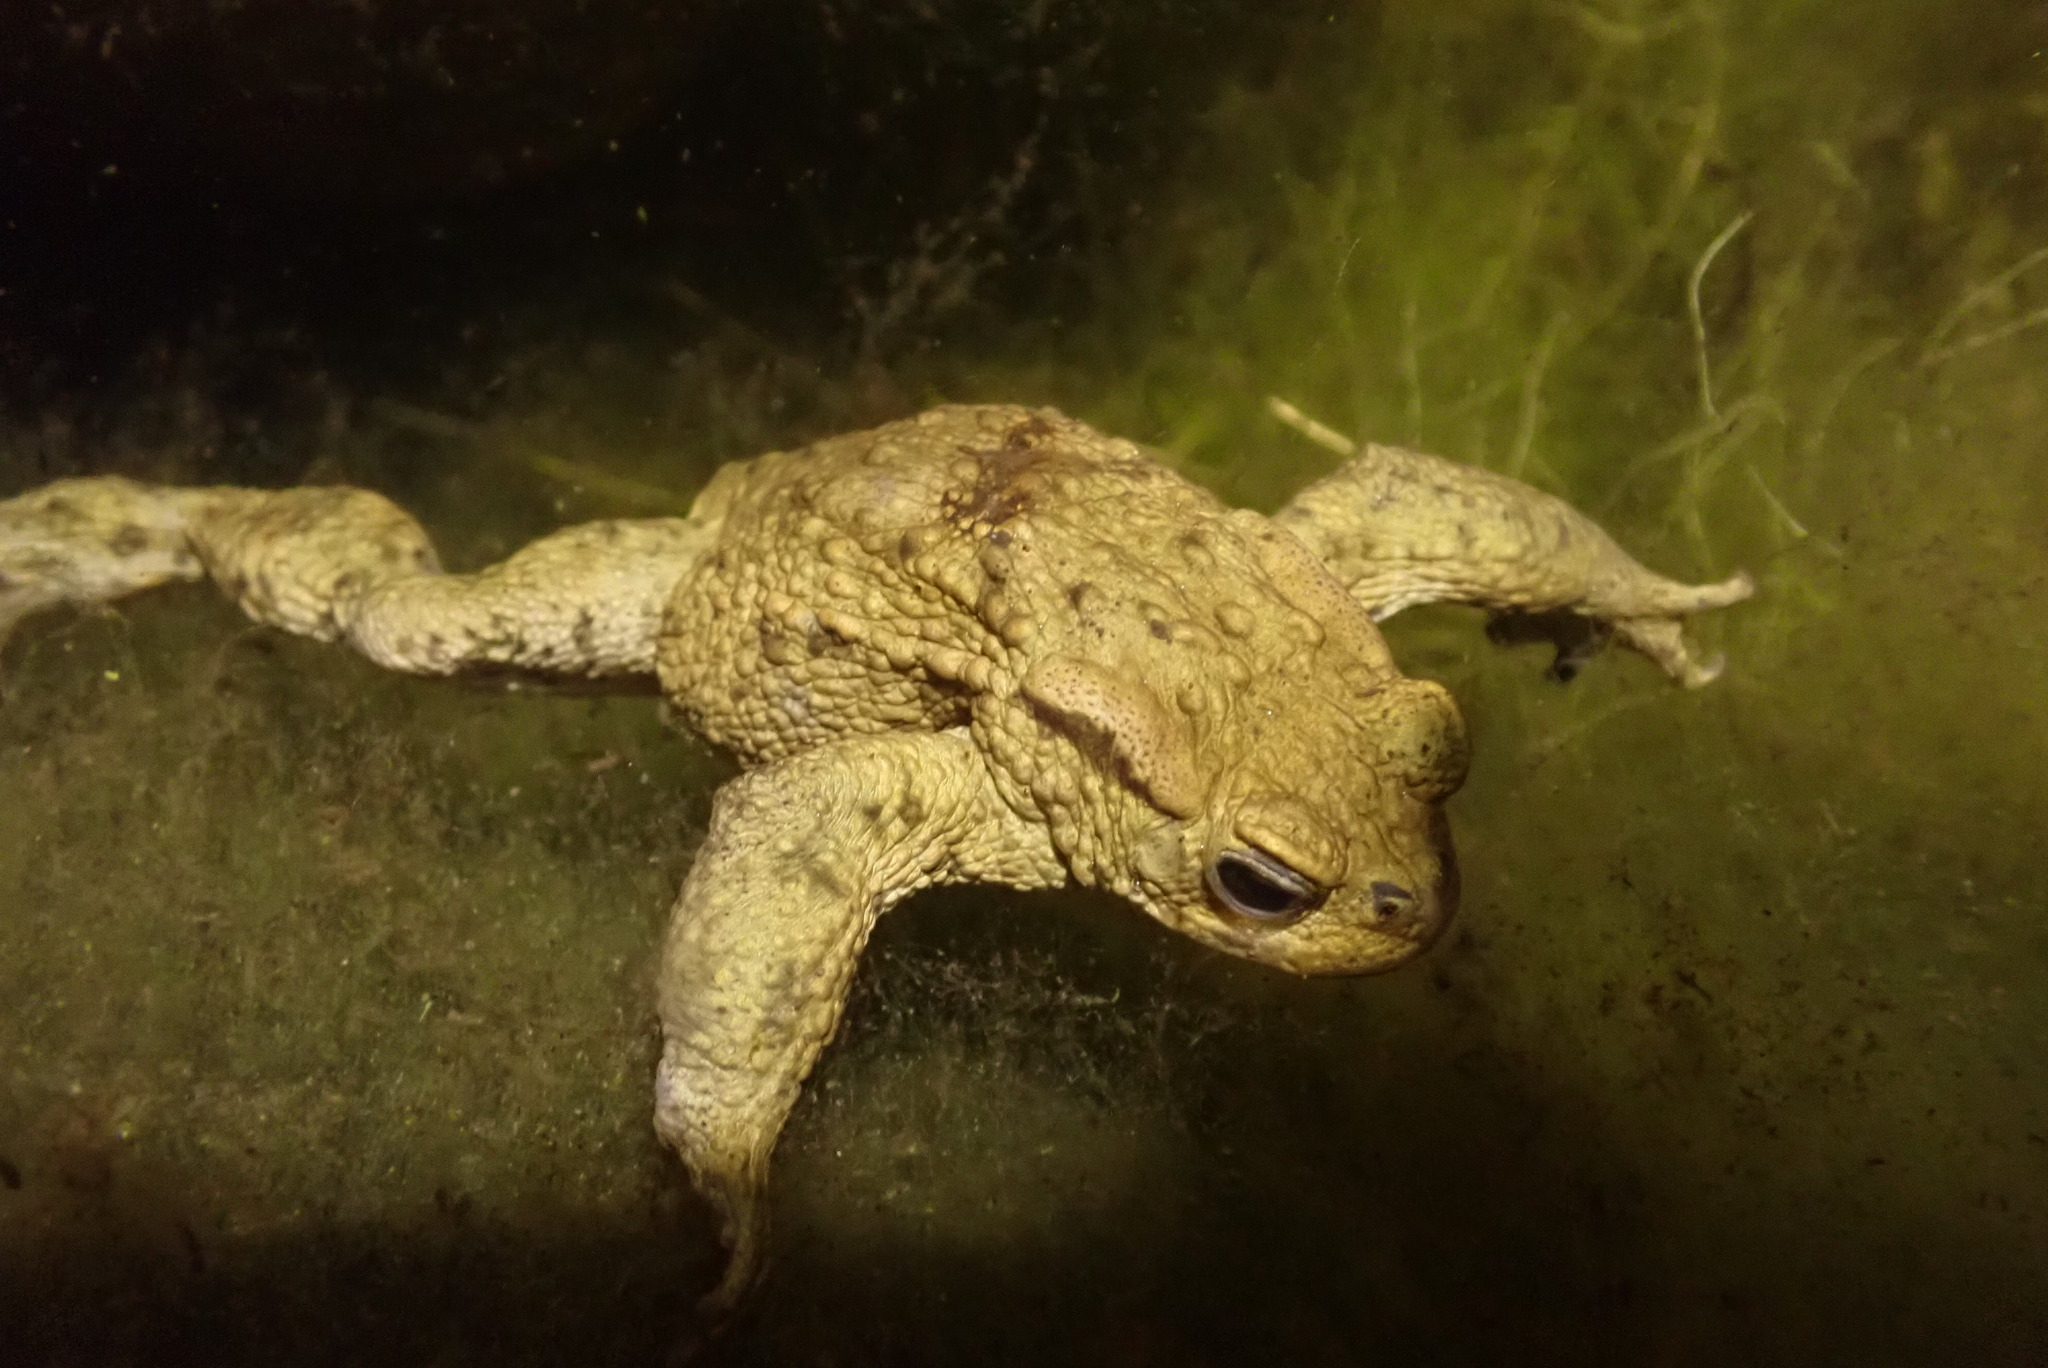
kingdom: Animalia
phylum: Chordata
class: Amphibia
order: Anura
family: Bufonidae
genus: Bufo
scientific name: Bufo bufo
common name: Common toad
